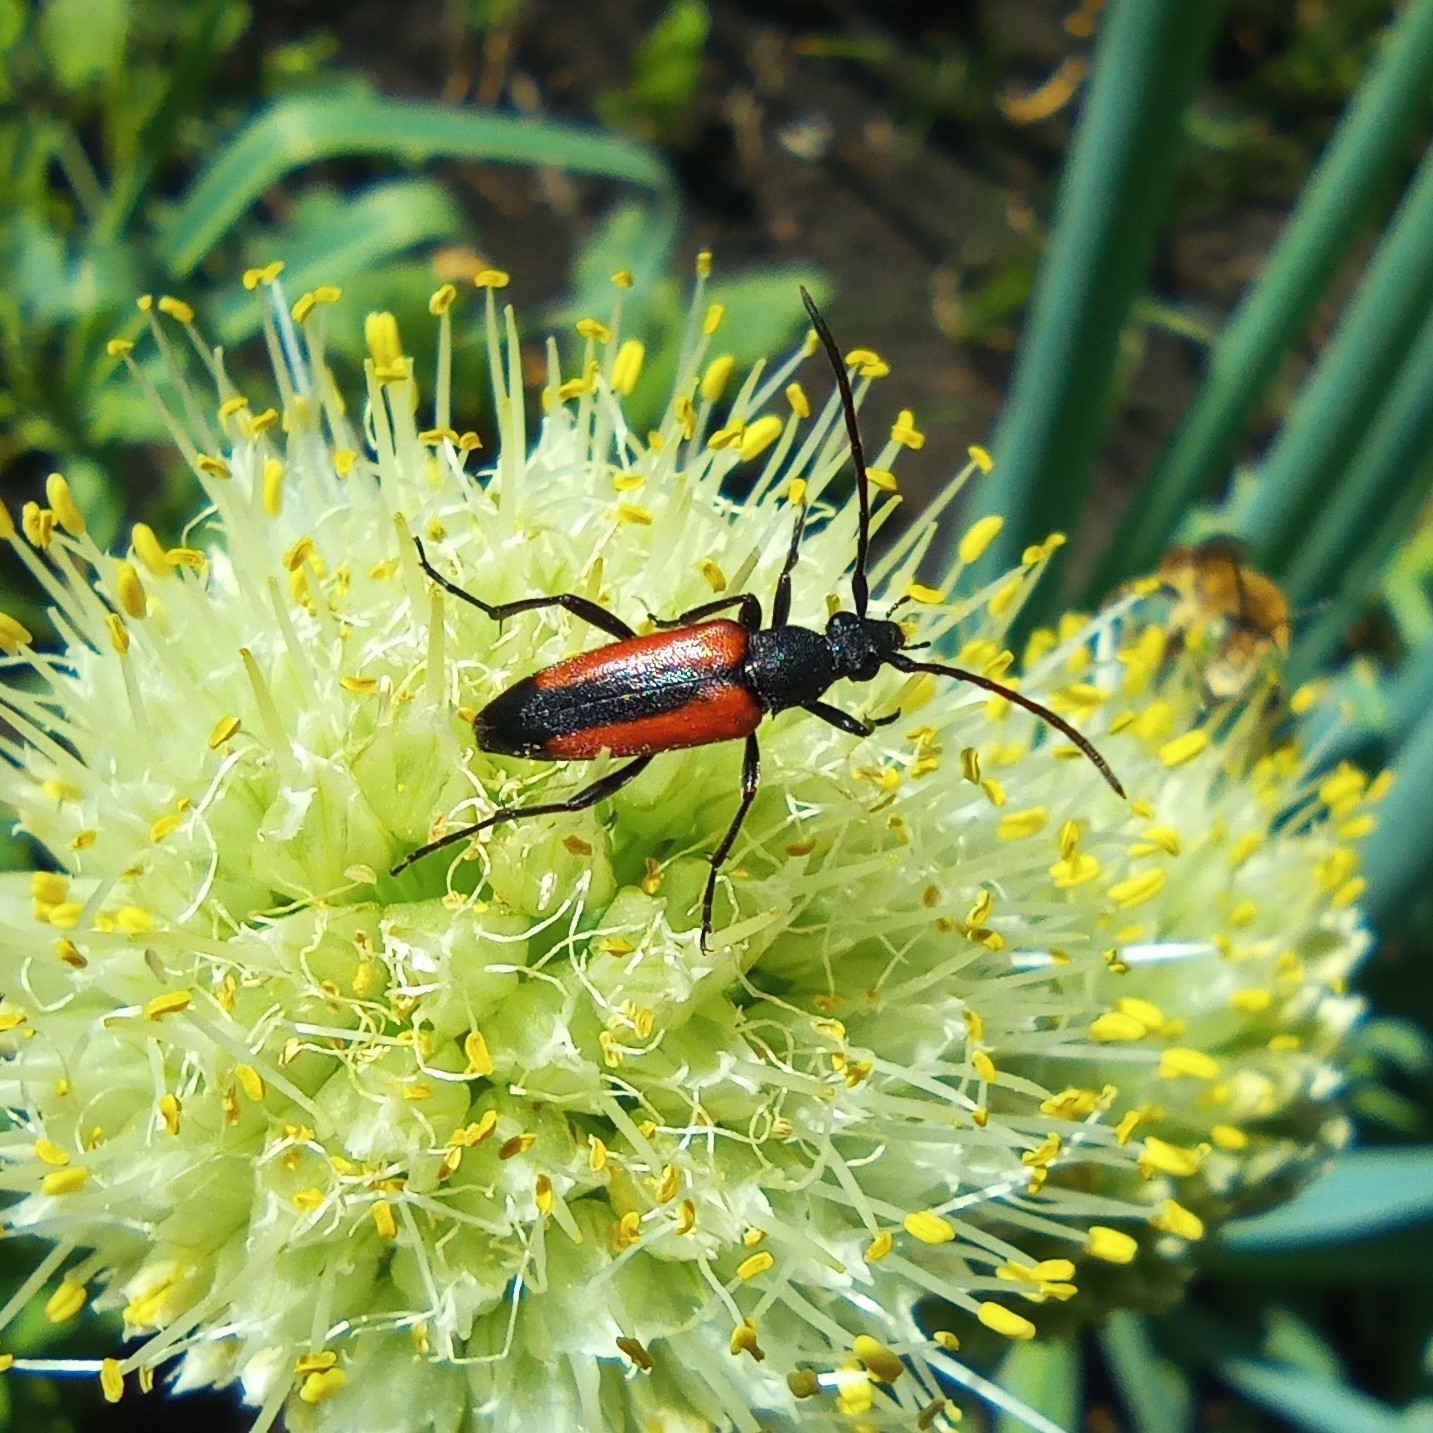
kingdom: Animalia
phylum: Arthropoda
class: Insecta
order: Coleoptera
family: Cerambycidae
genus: Stenurella
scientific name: Stenurella melanura
